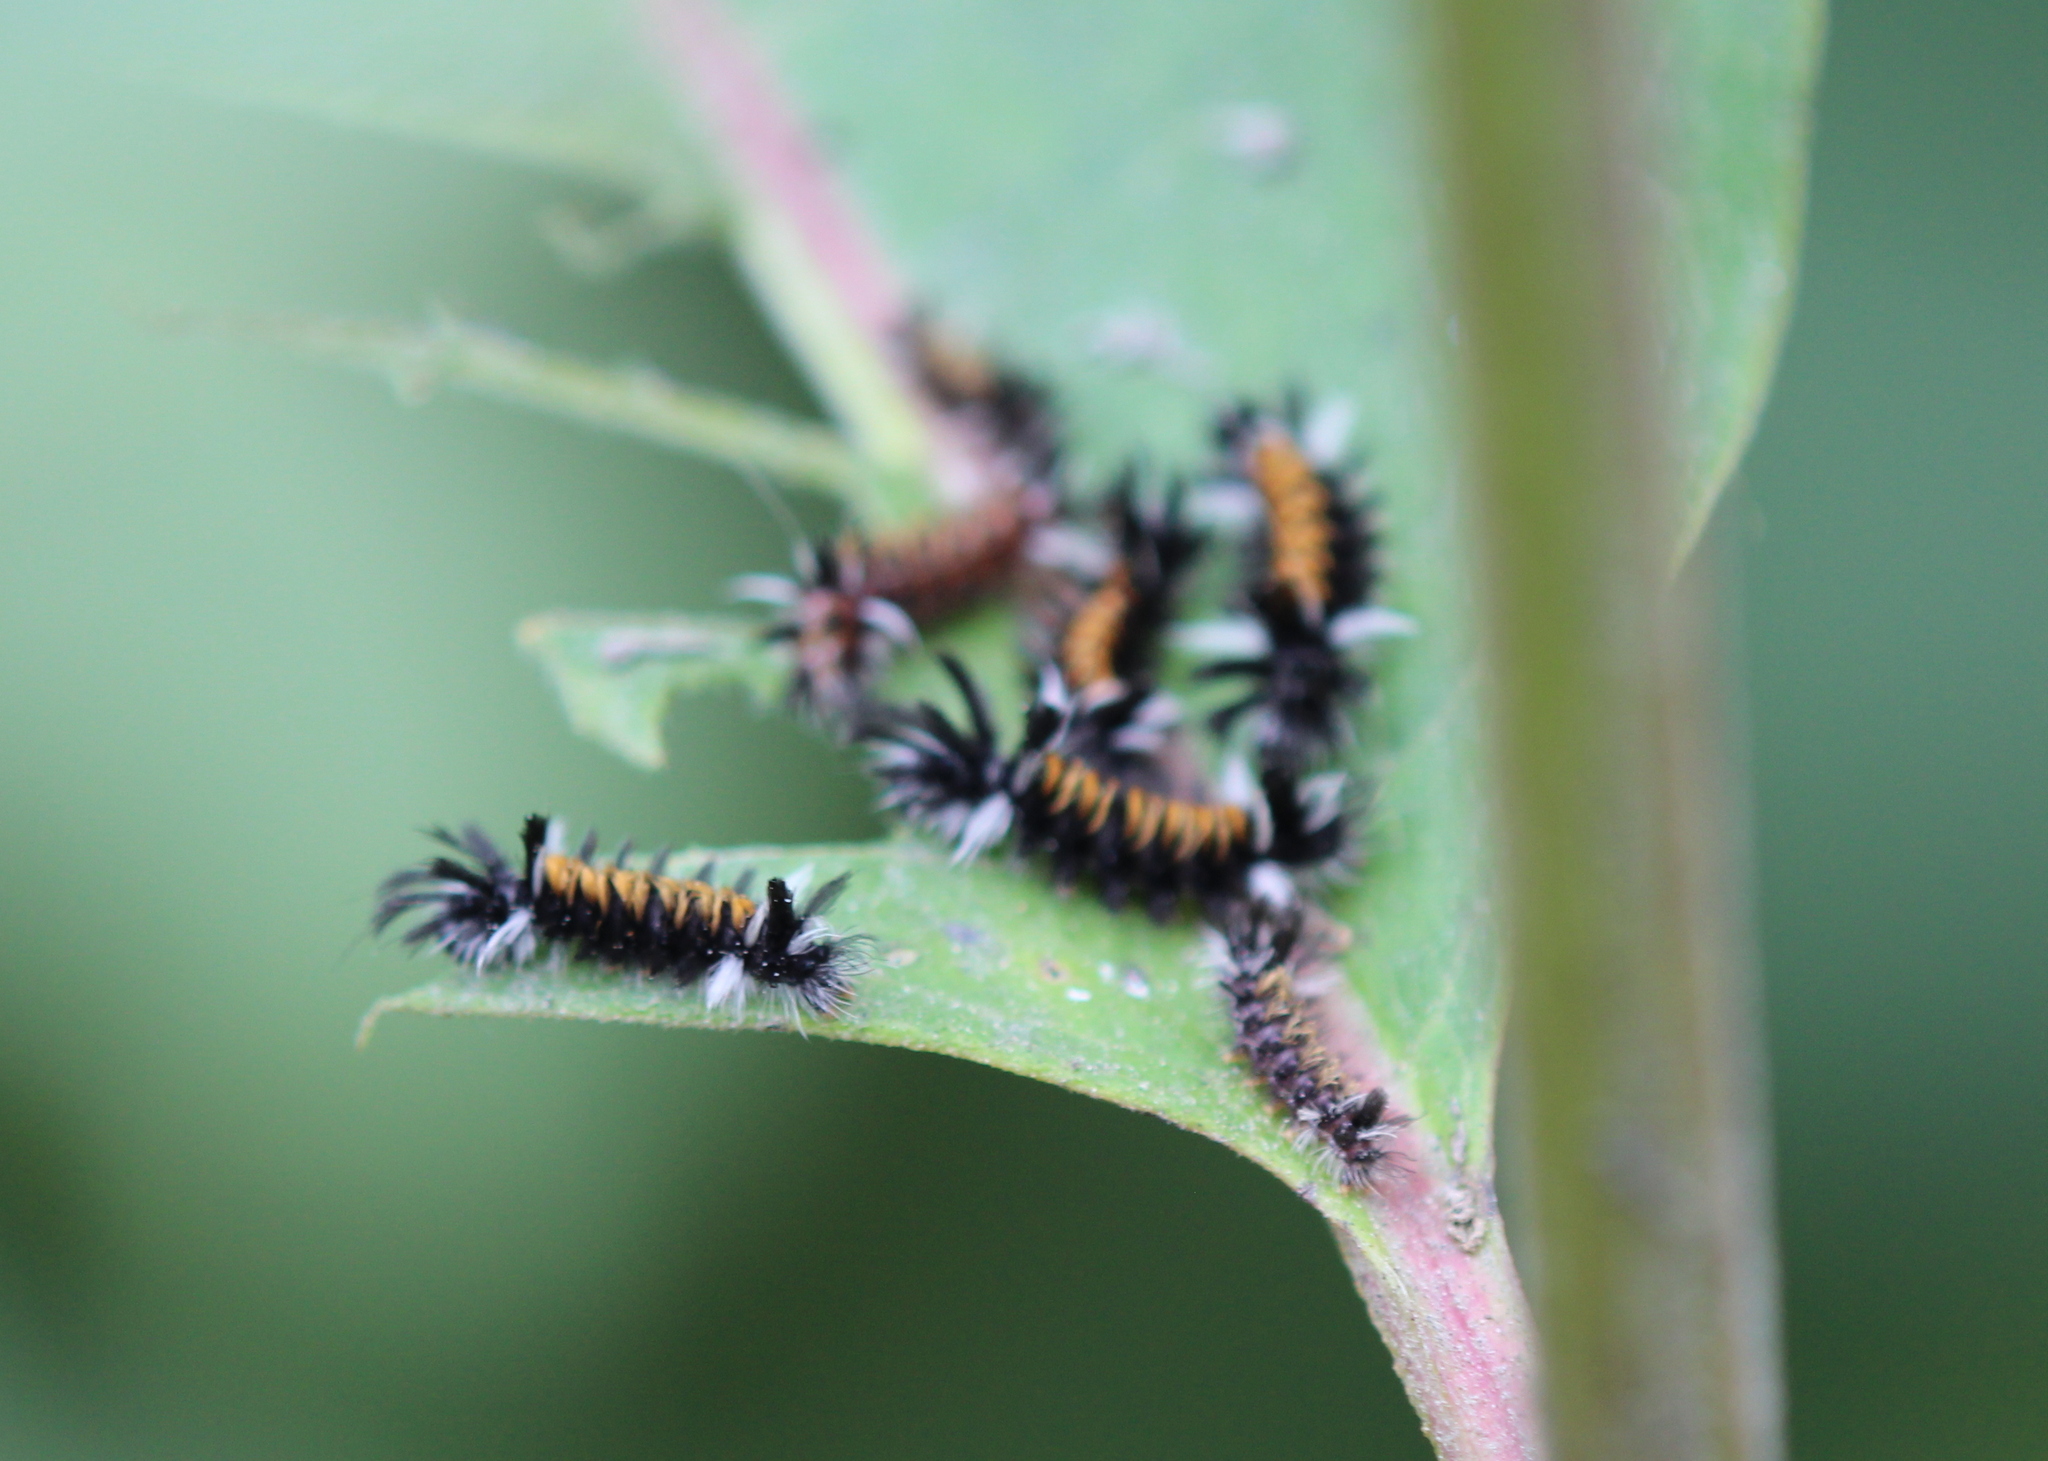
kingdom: Animalia
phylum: Arthropoda
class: Insecta
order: Lepidoptera
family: Erebidae
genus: Euchaetes
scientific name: Euchaetes egle
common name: Milkweed tussock moth
